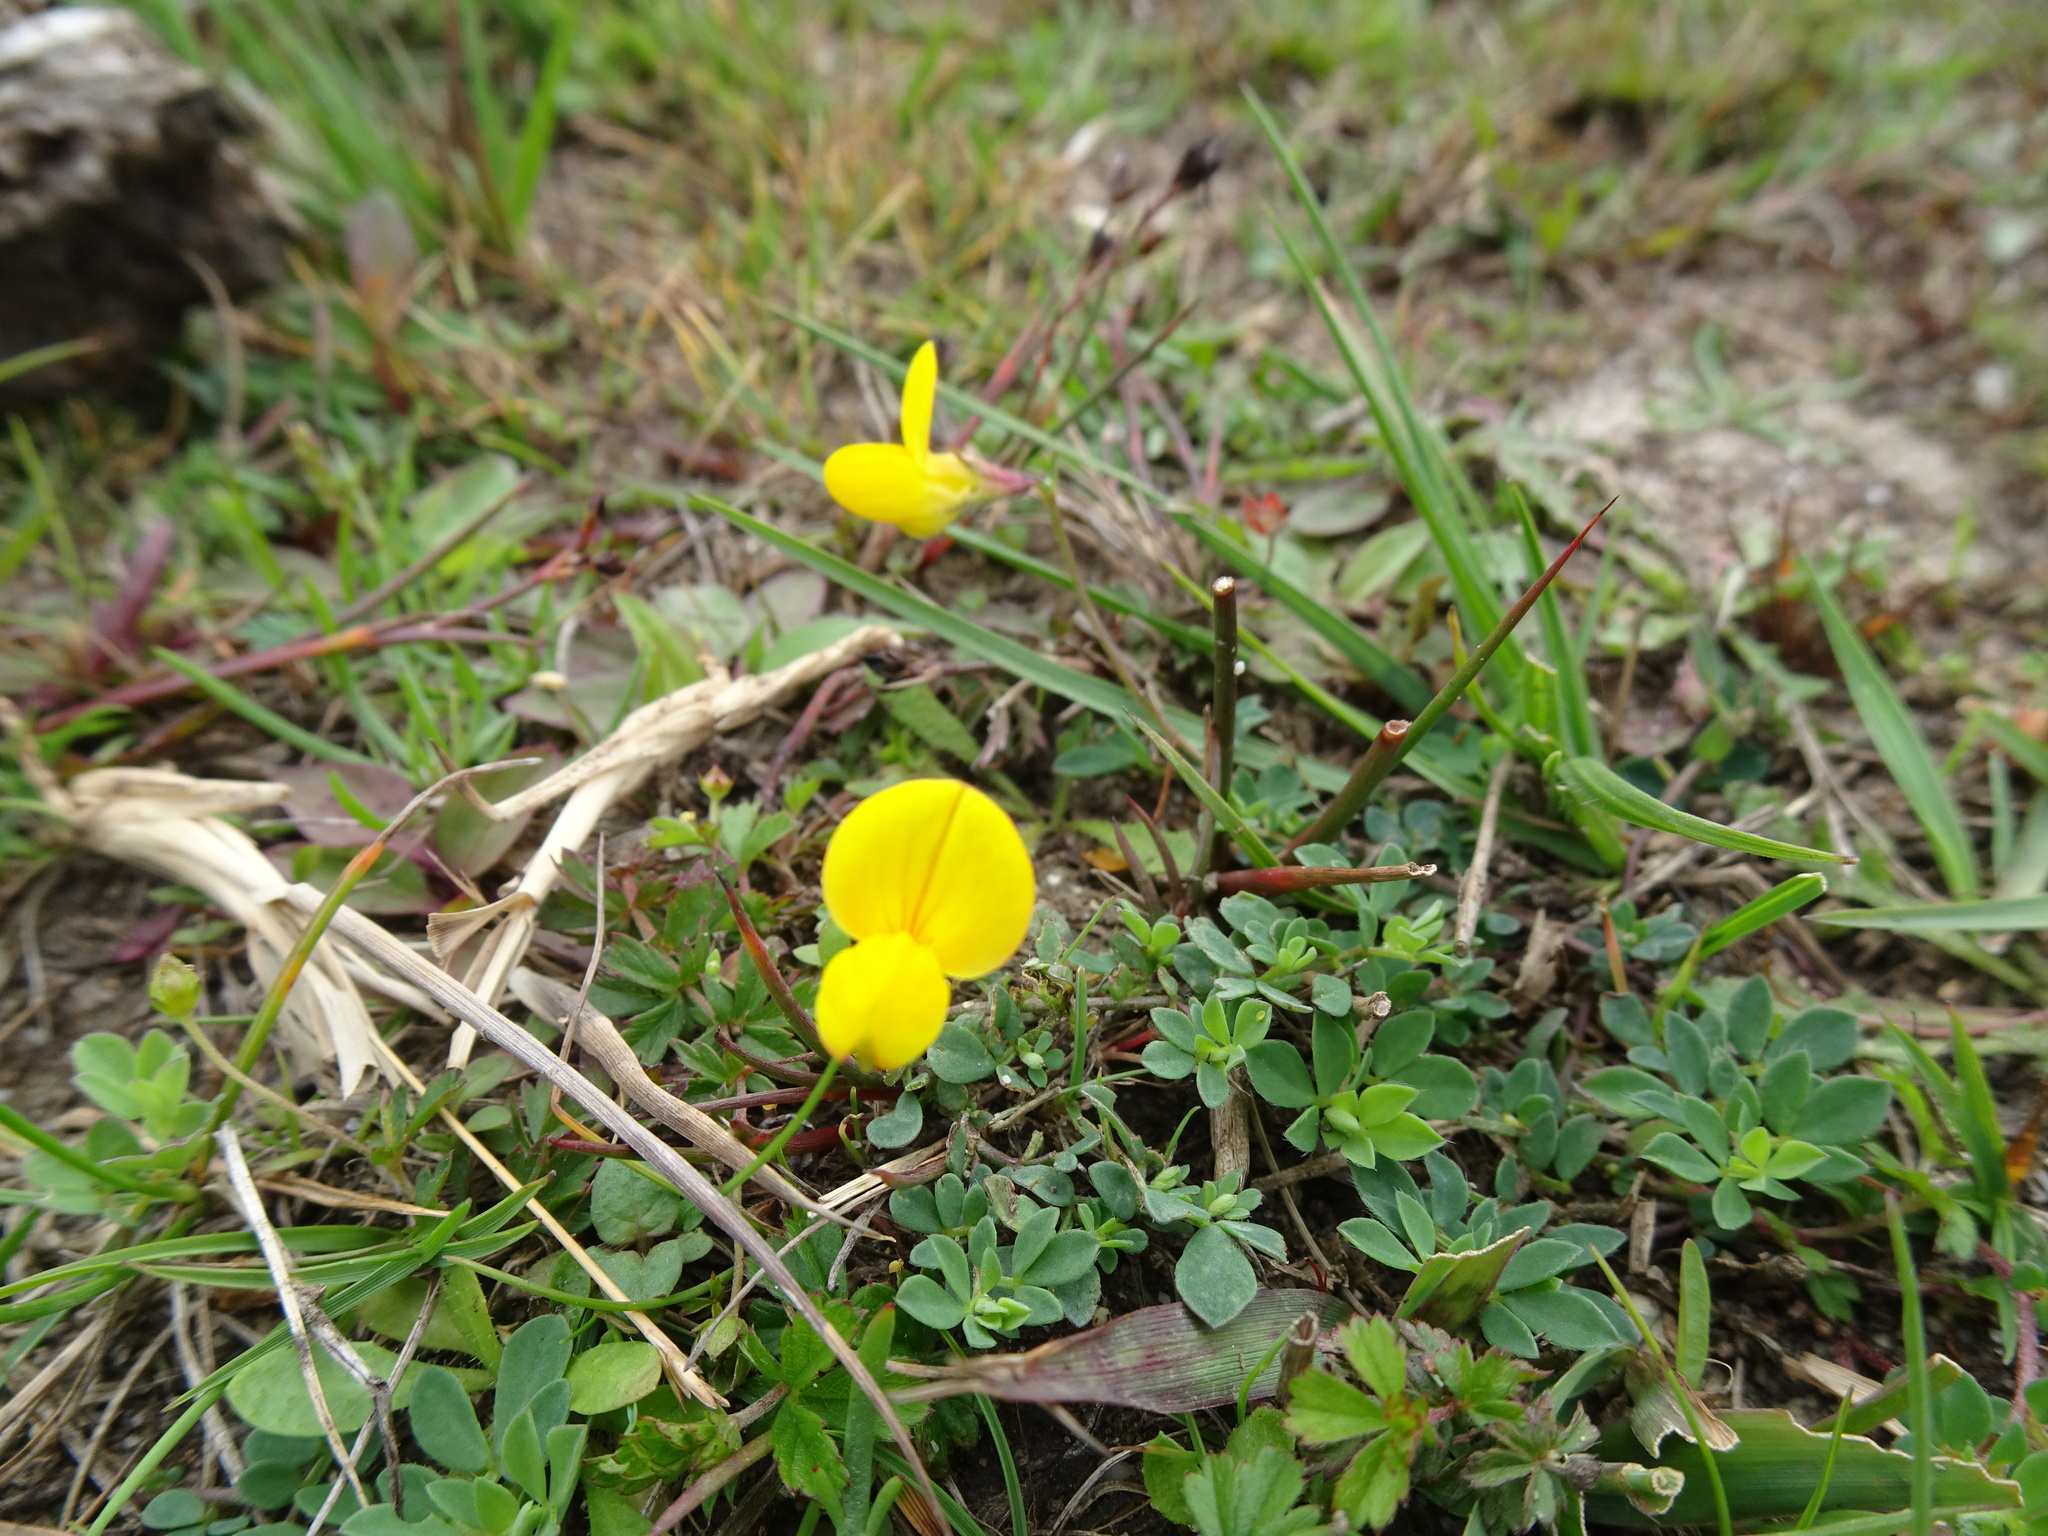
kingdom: Plantae
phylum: Tracheophyta
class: Magnoliopsida
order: Fabales
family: Fabaceae
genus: Lotus
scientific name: Lotus corniculatus
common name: Common bird's-foot-trefoil
